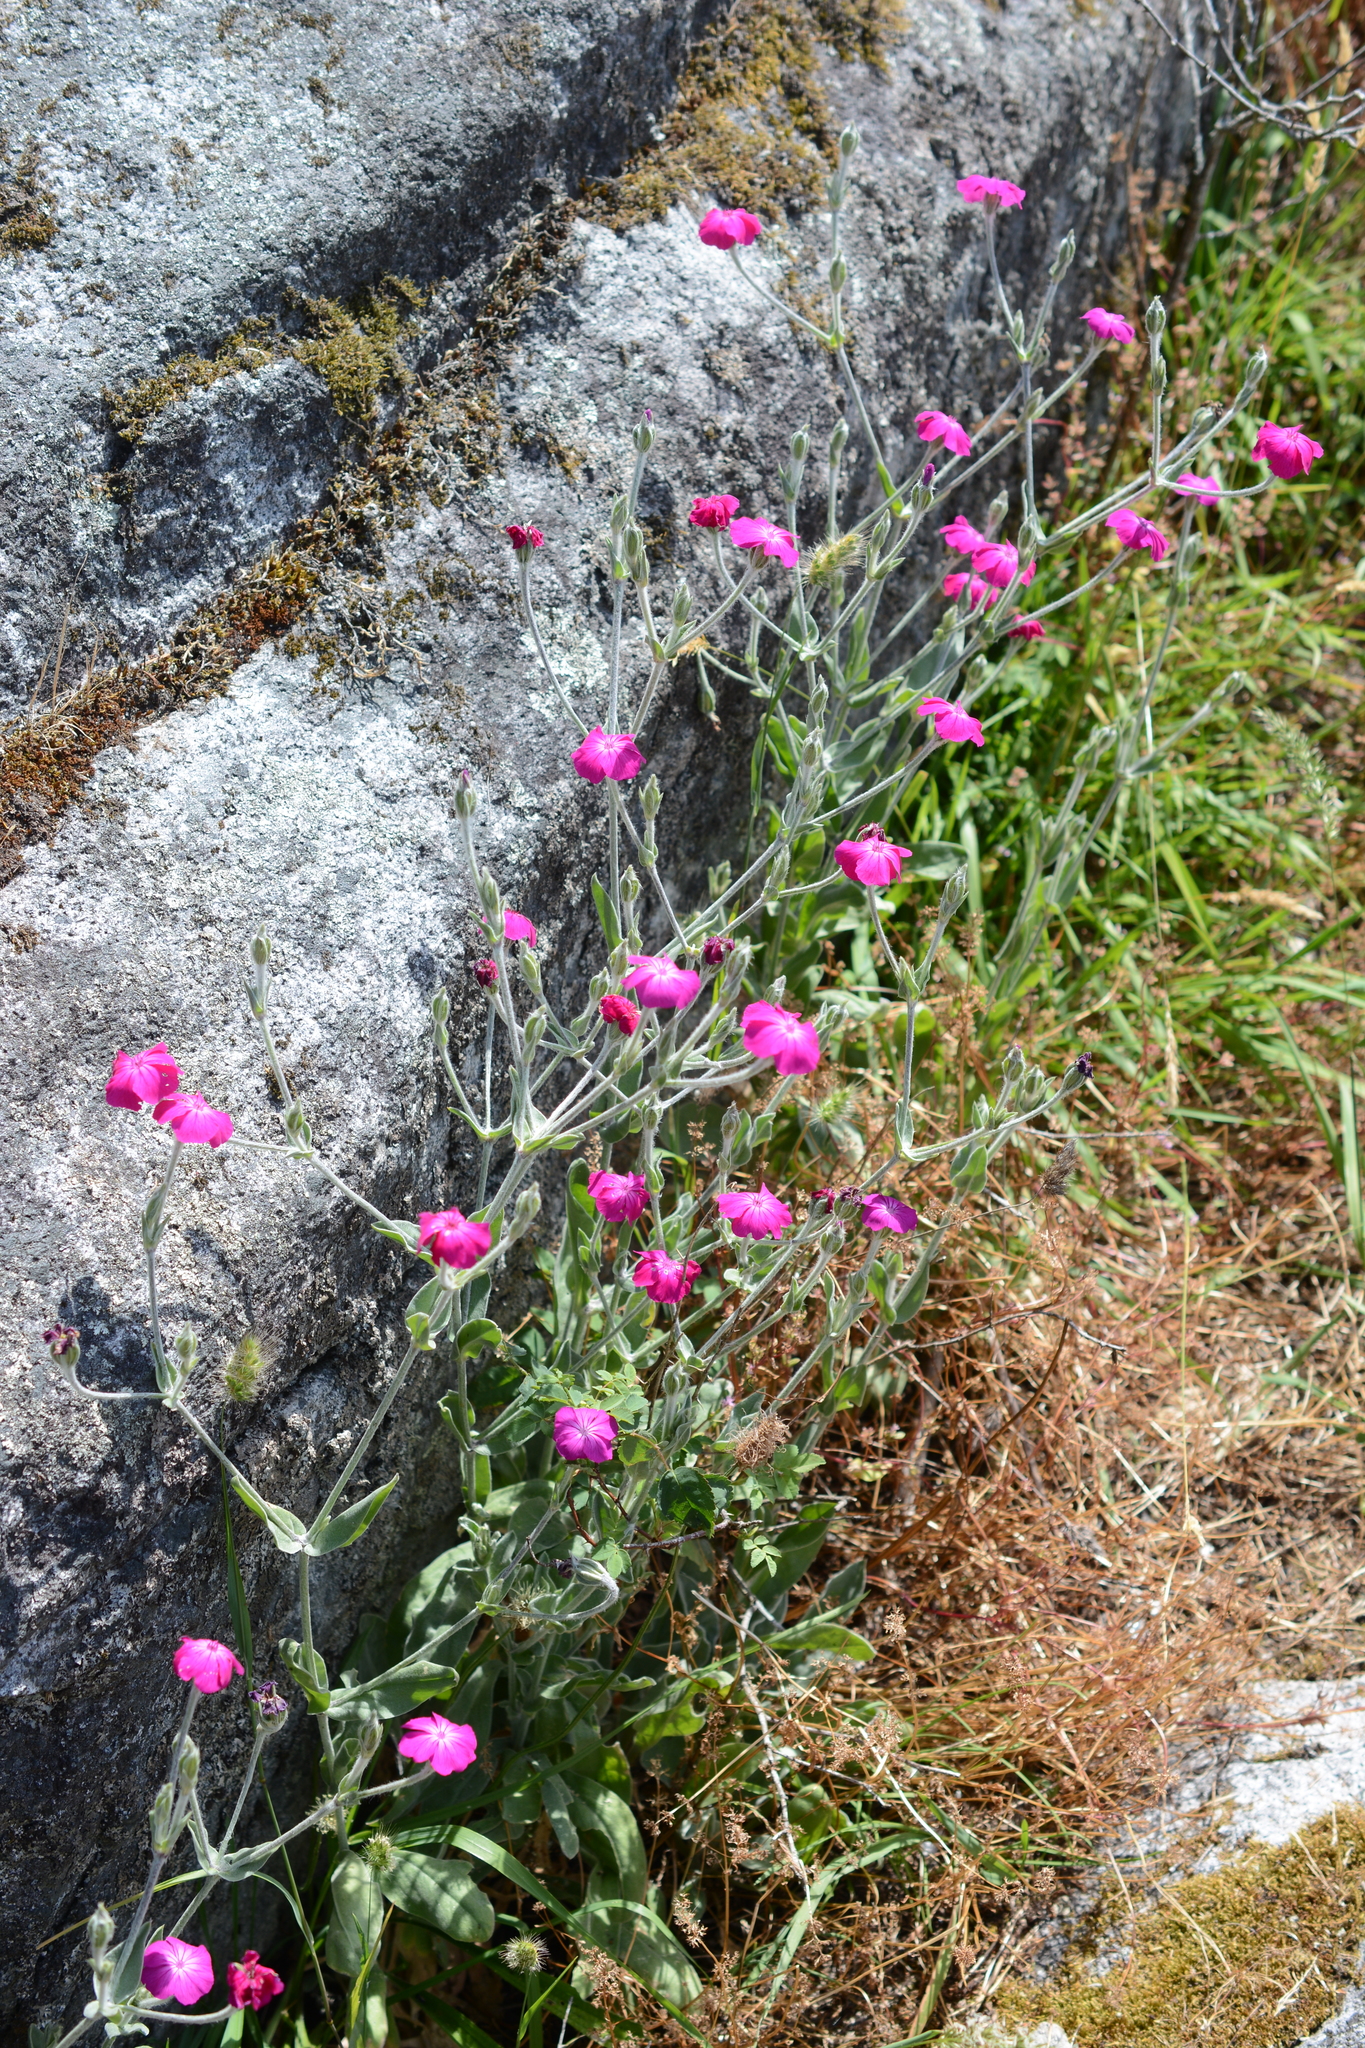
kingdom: Plantae
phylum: Tracheophyta
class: Magnoliopsida
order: Caryophyllales
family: Caryophyllaceae
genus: Silene
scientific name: Silene coronaria
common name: Rose campion
